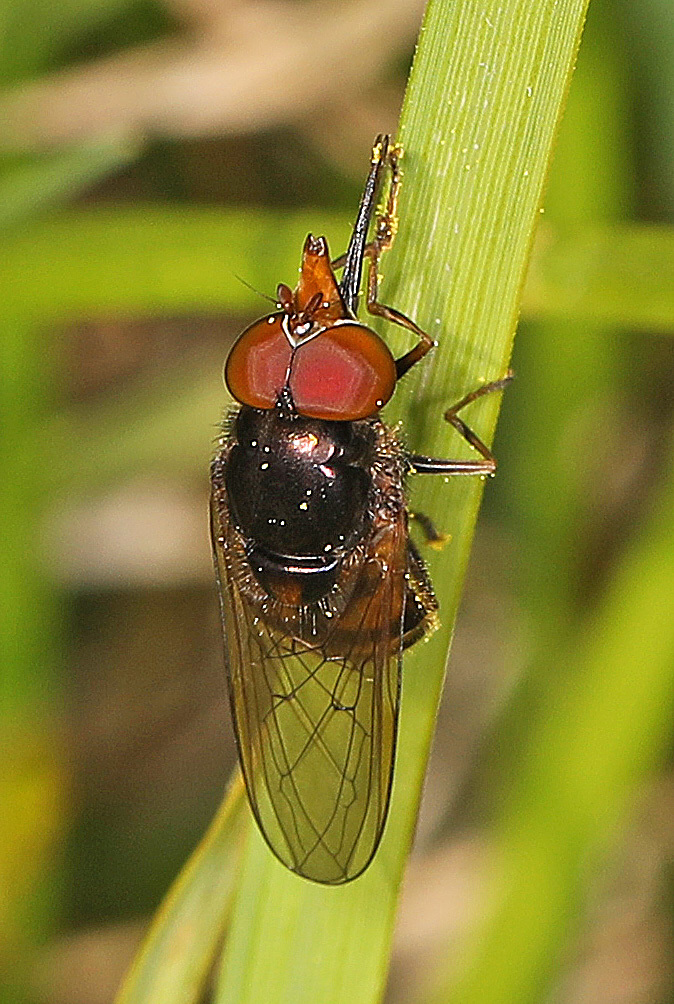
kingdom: Animalia
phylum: Arthropoda
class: Insecta
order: Diptera
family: Syrphidae
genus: Rhingia
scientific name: Rhingia nasica
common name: American snout fly
